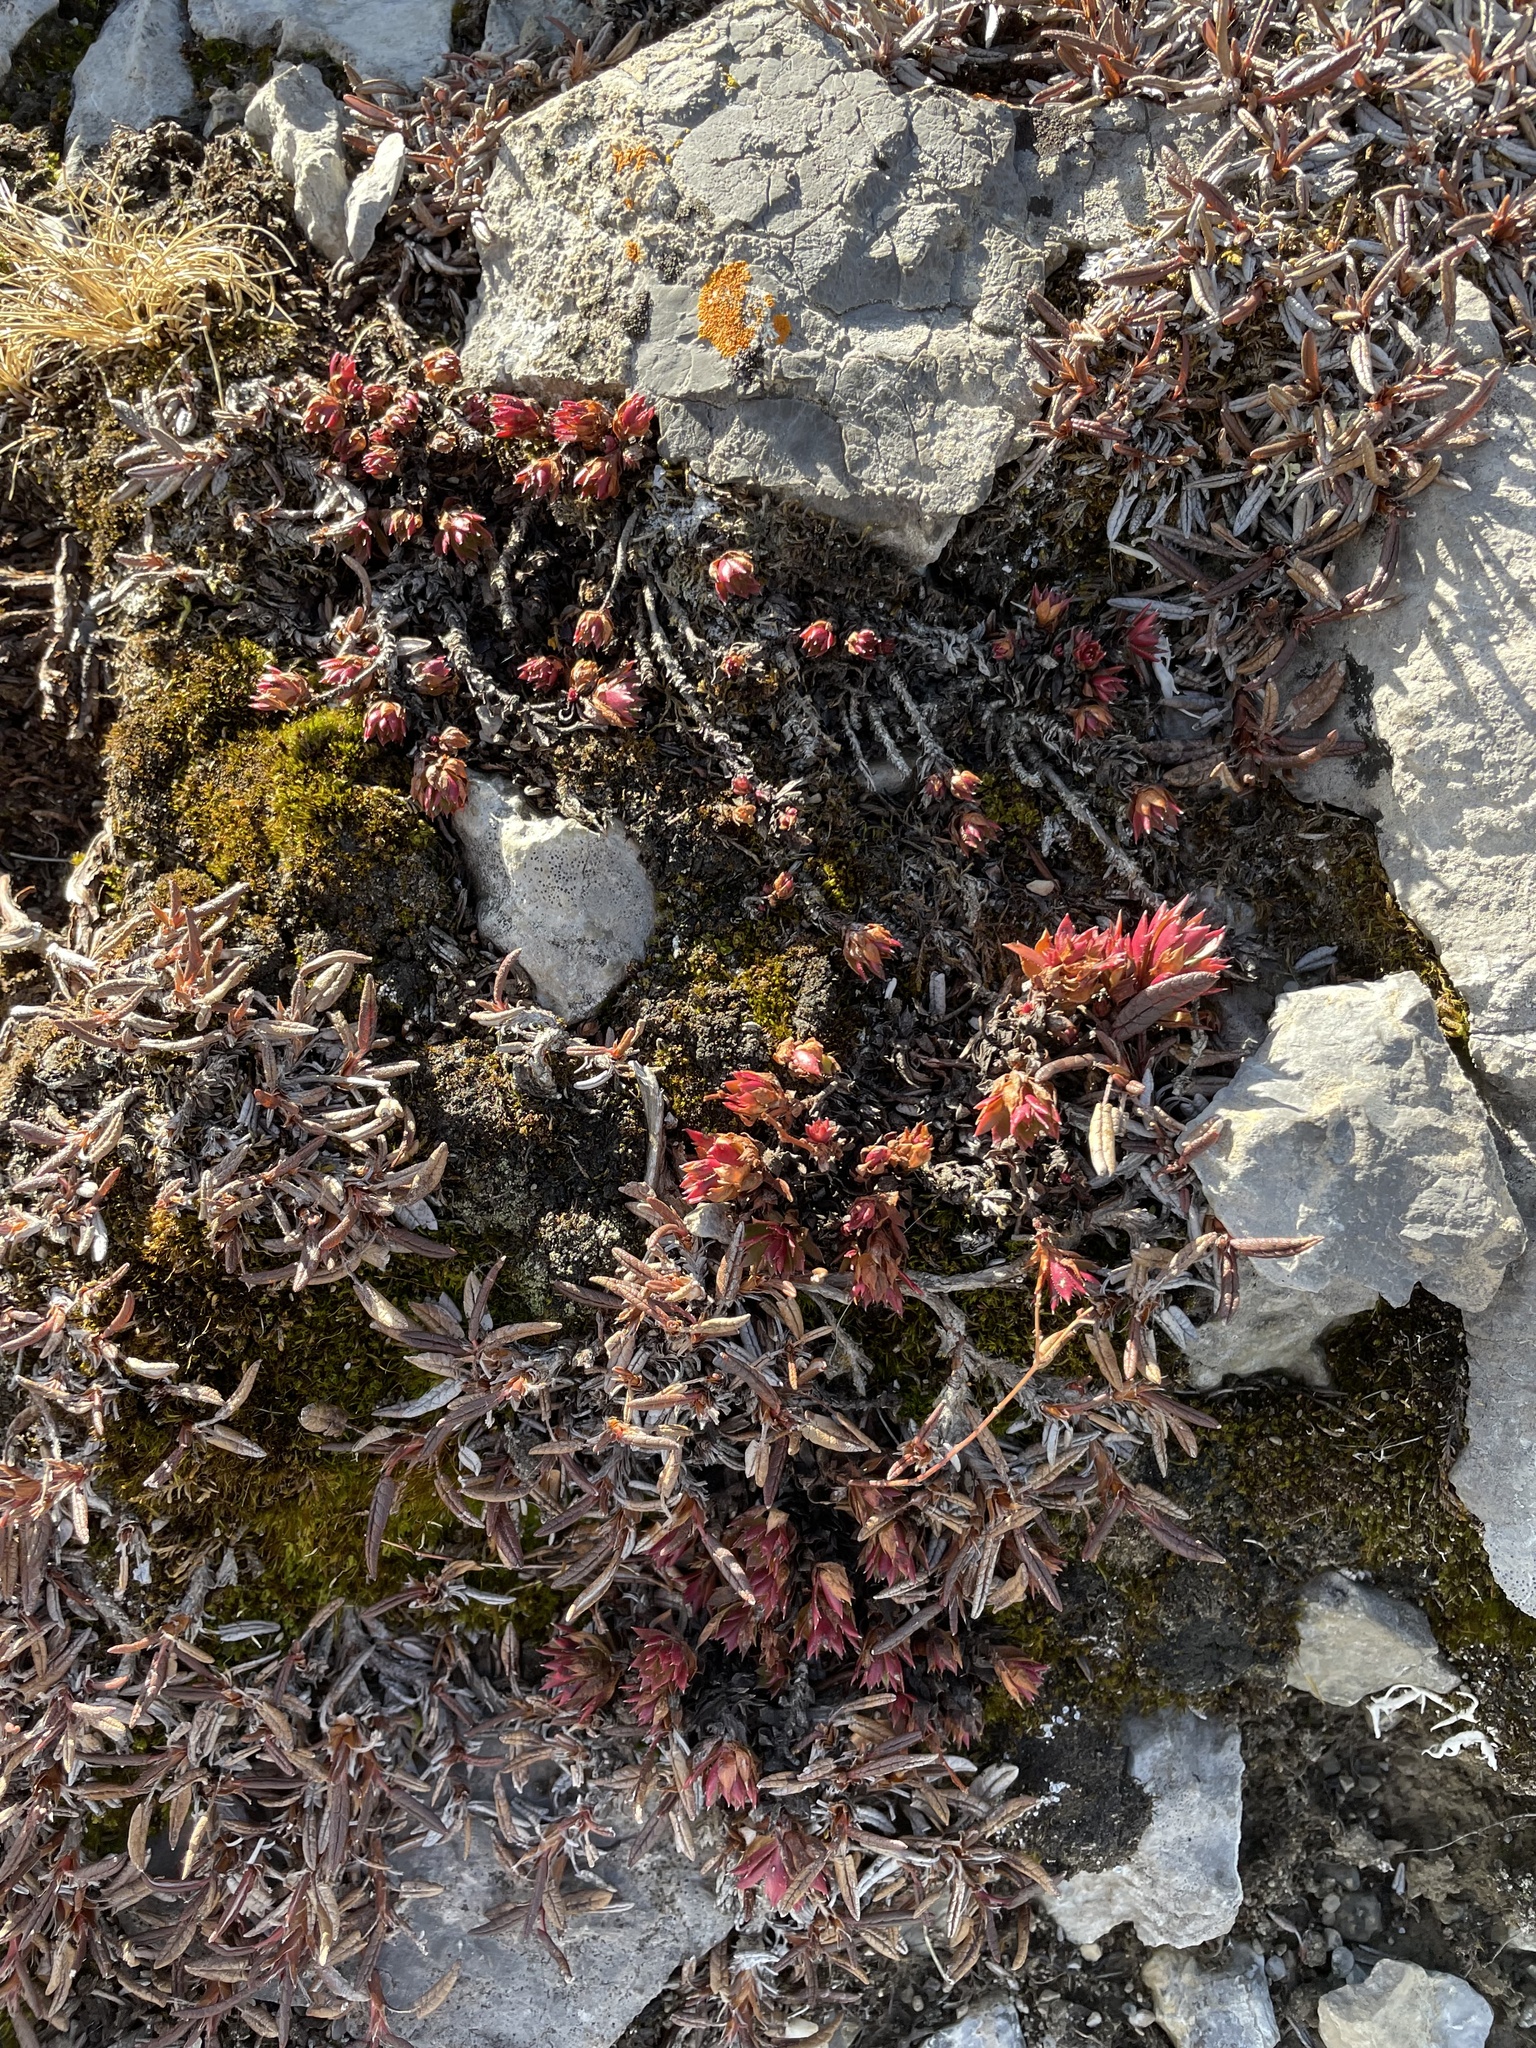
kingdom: Plantae
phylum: Tracheophyta
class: Magnoliopsida
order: Saxifragales
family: Saxifragaceae
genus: Saxifraga
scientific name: Saxifraga tricuspidata
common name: Prickly saxifrage
